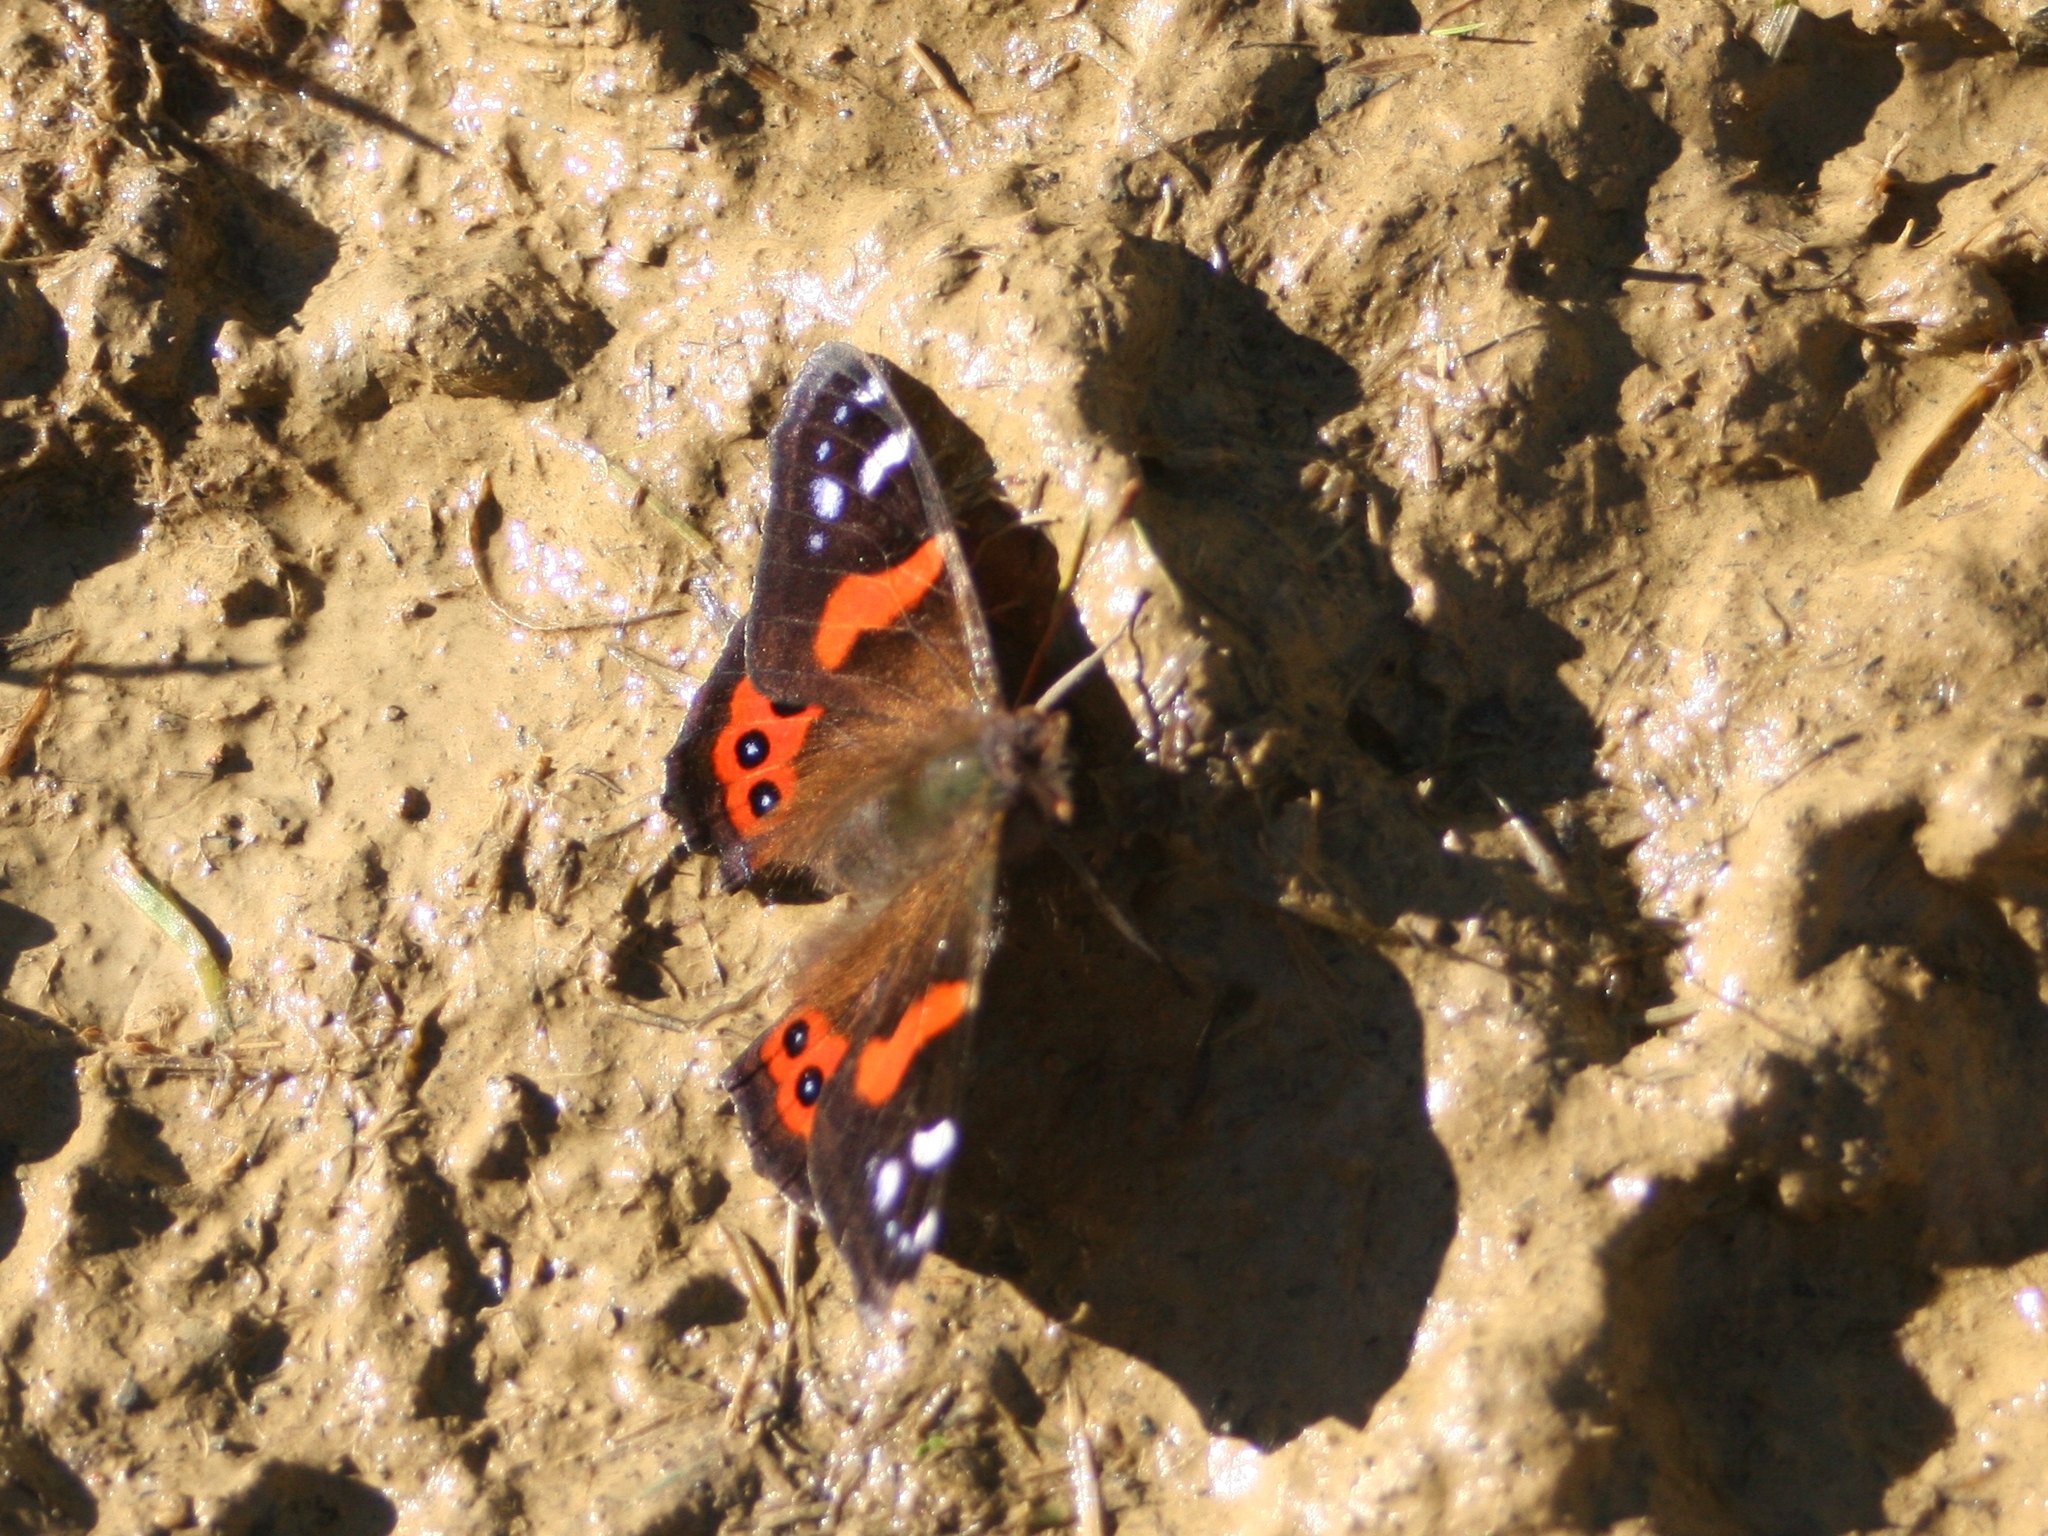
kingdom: Animalia
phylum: Arthropoda
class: Insecta
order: Lepidoptera
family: Nymphalidae
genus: Vanessa
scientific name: Vanessa gonerilla
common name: New zealand red admiral
